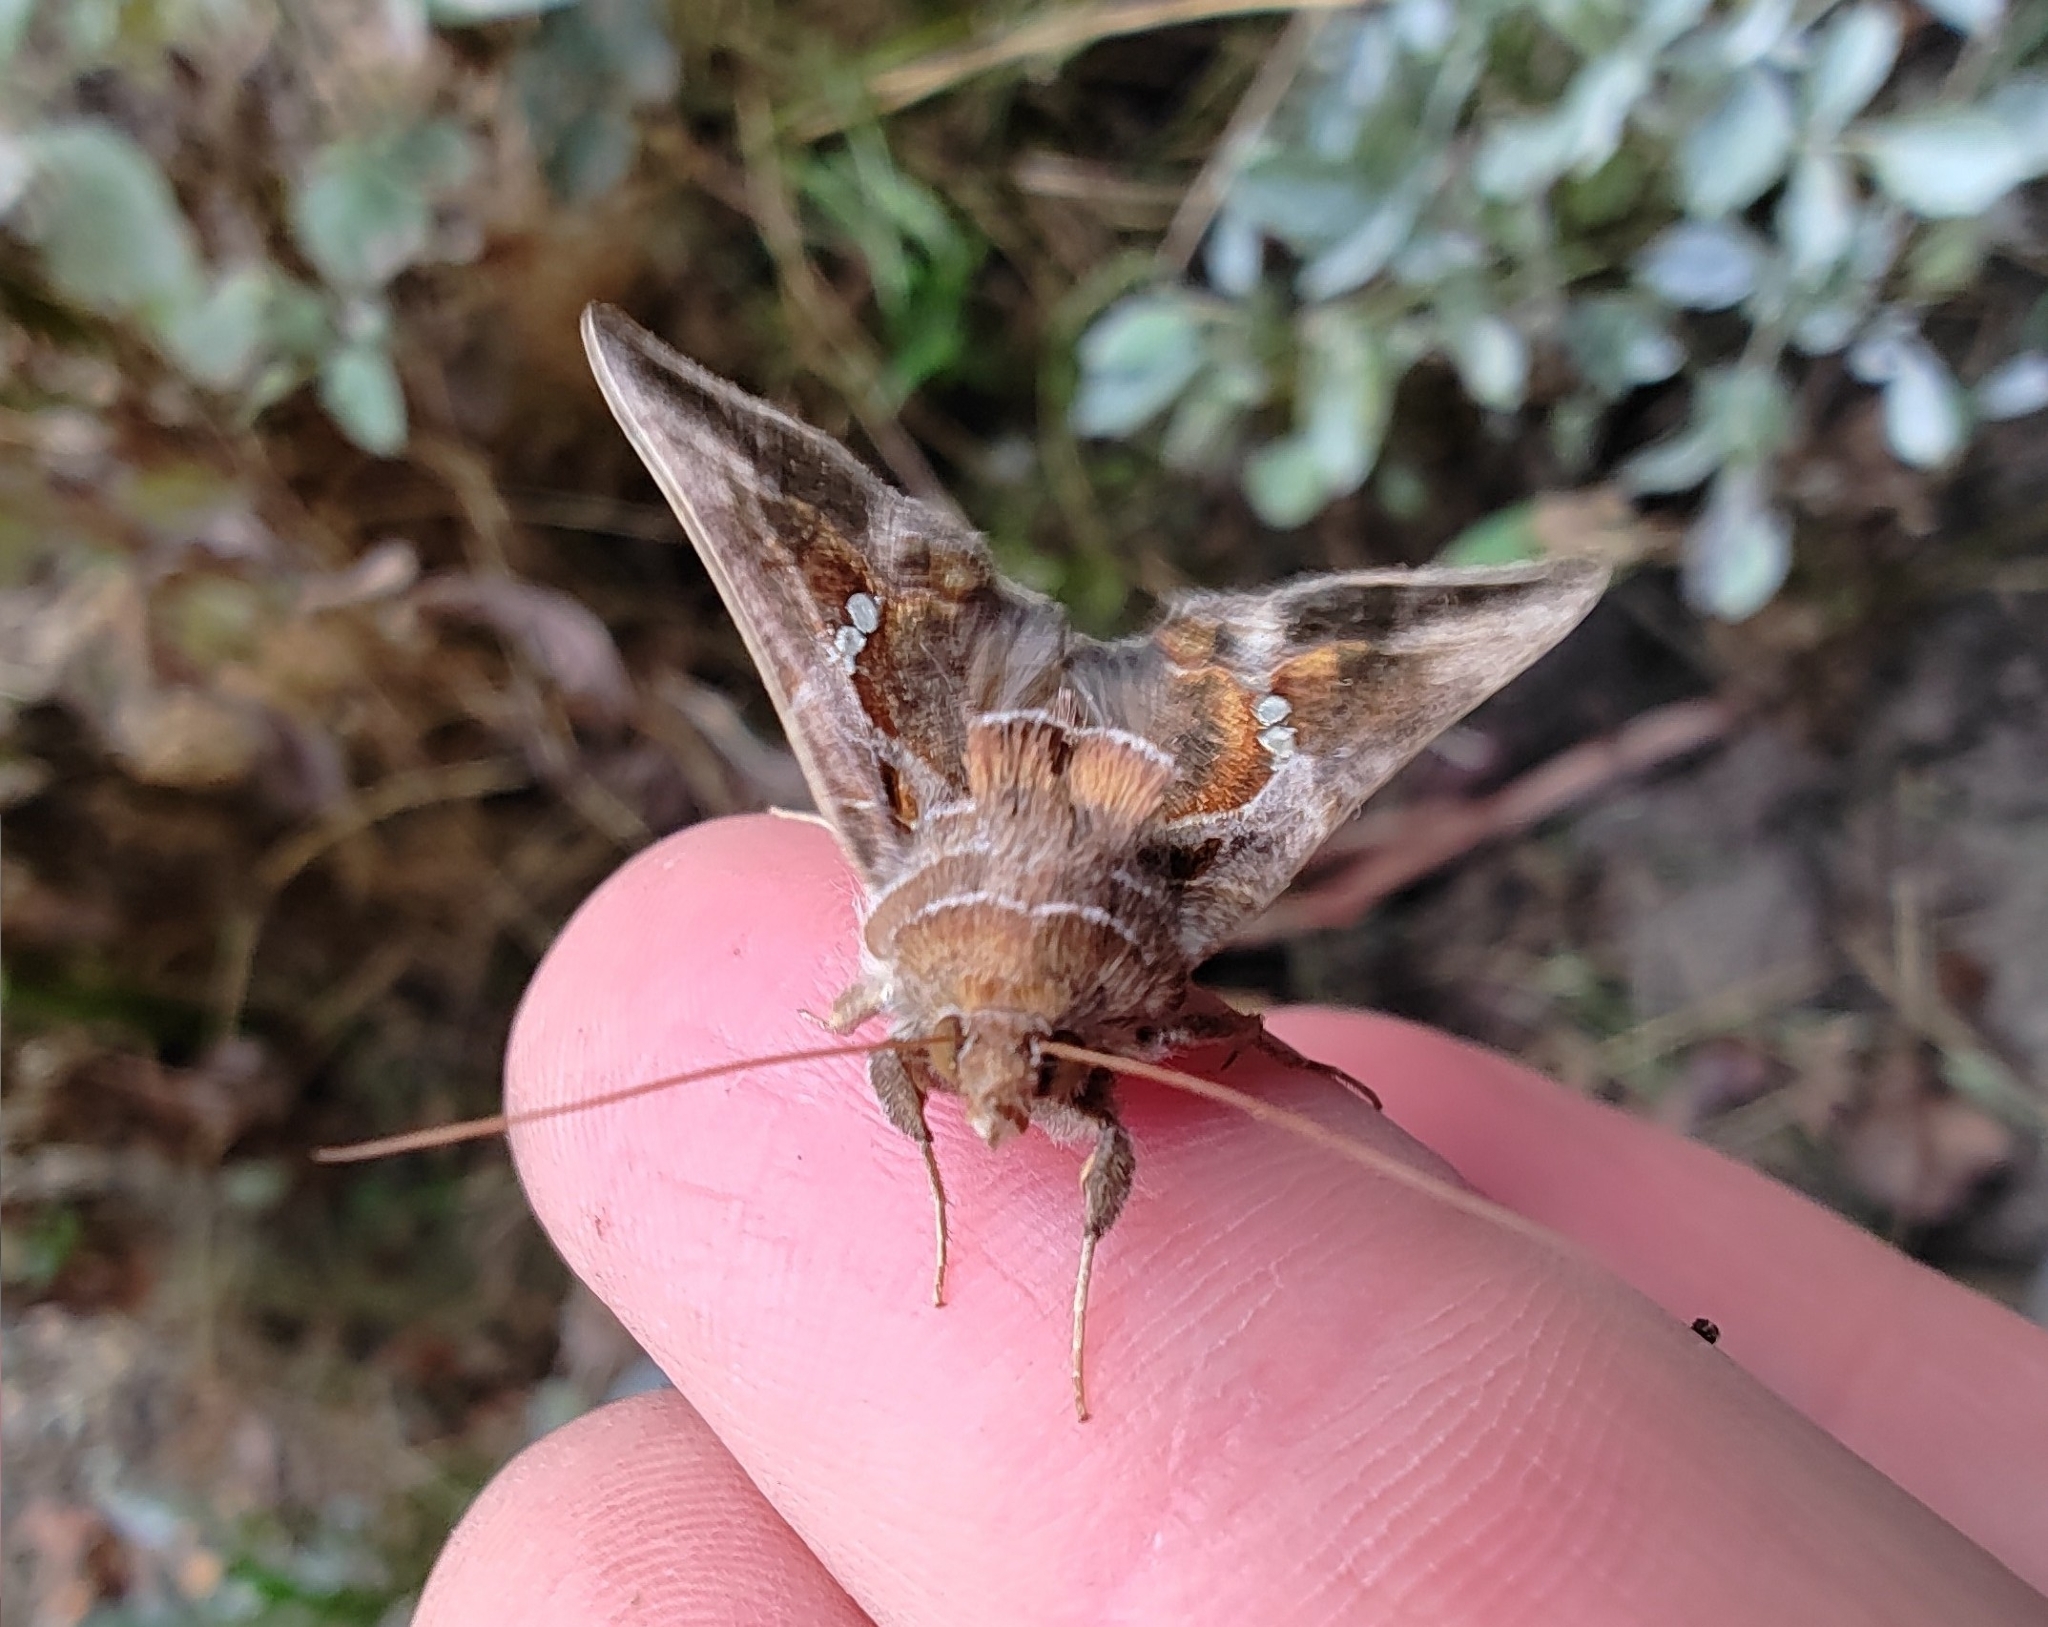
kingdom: Animalia
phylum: Arthropoda
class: Insecta
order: Lepidoptera
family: Noctuidae
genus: Chrysodeixis
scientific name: Chrysodeixis eriosoma
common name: Green garden looper
